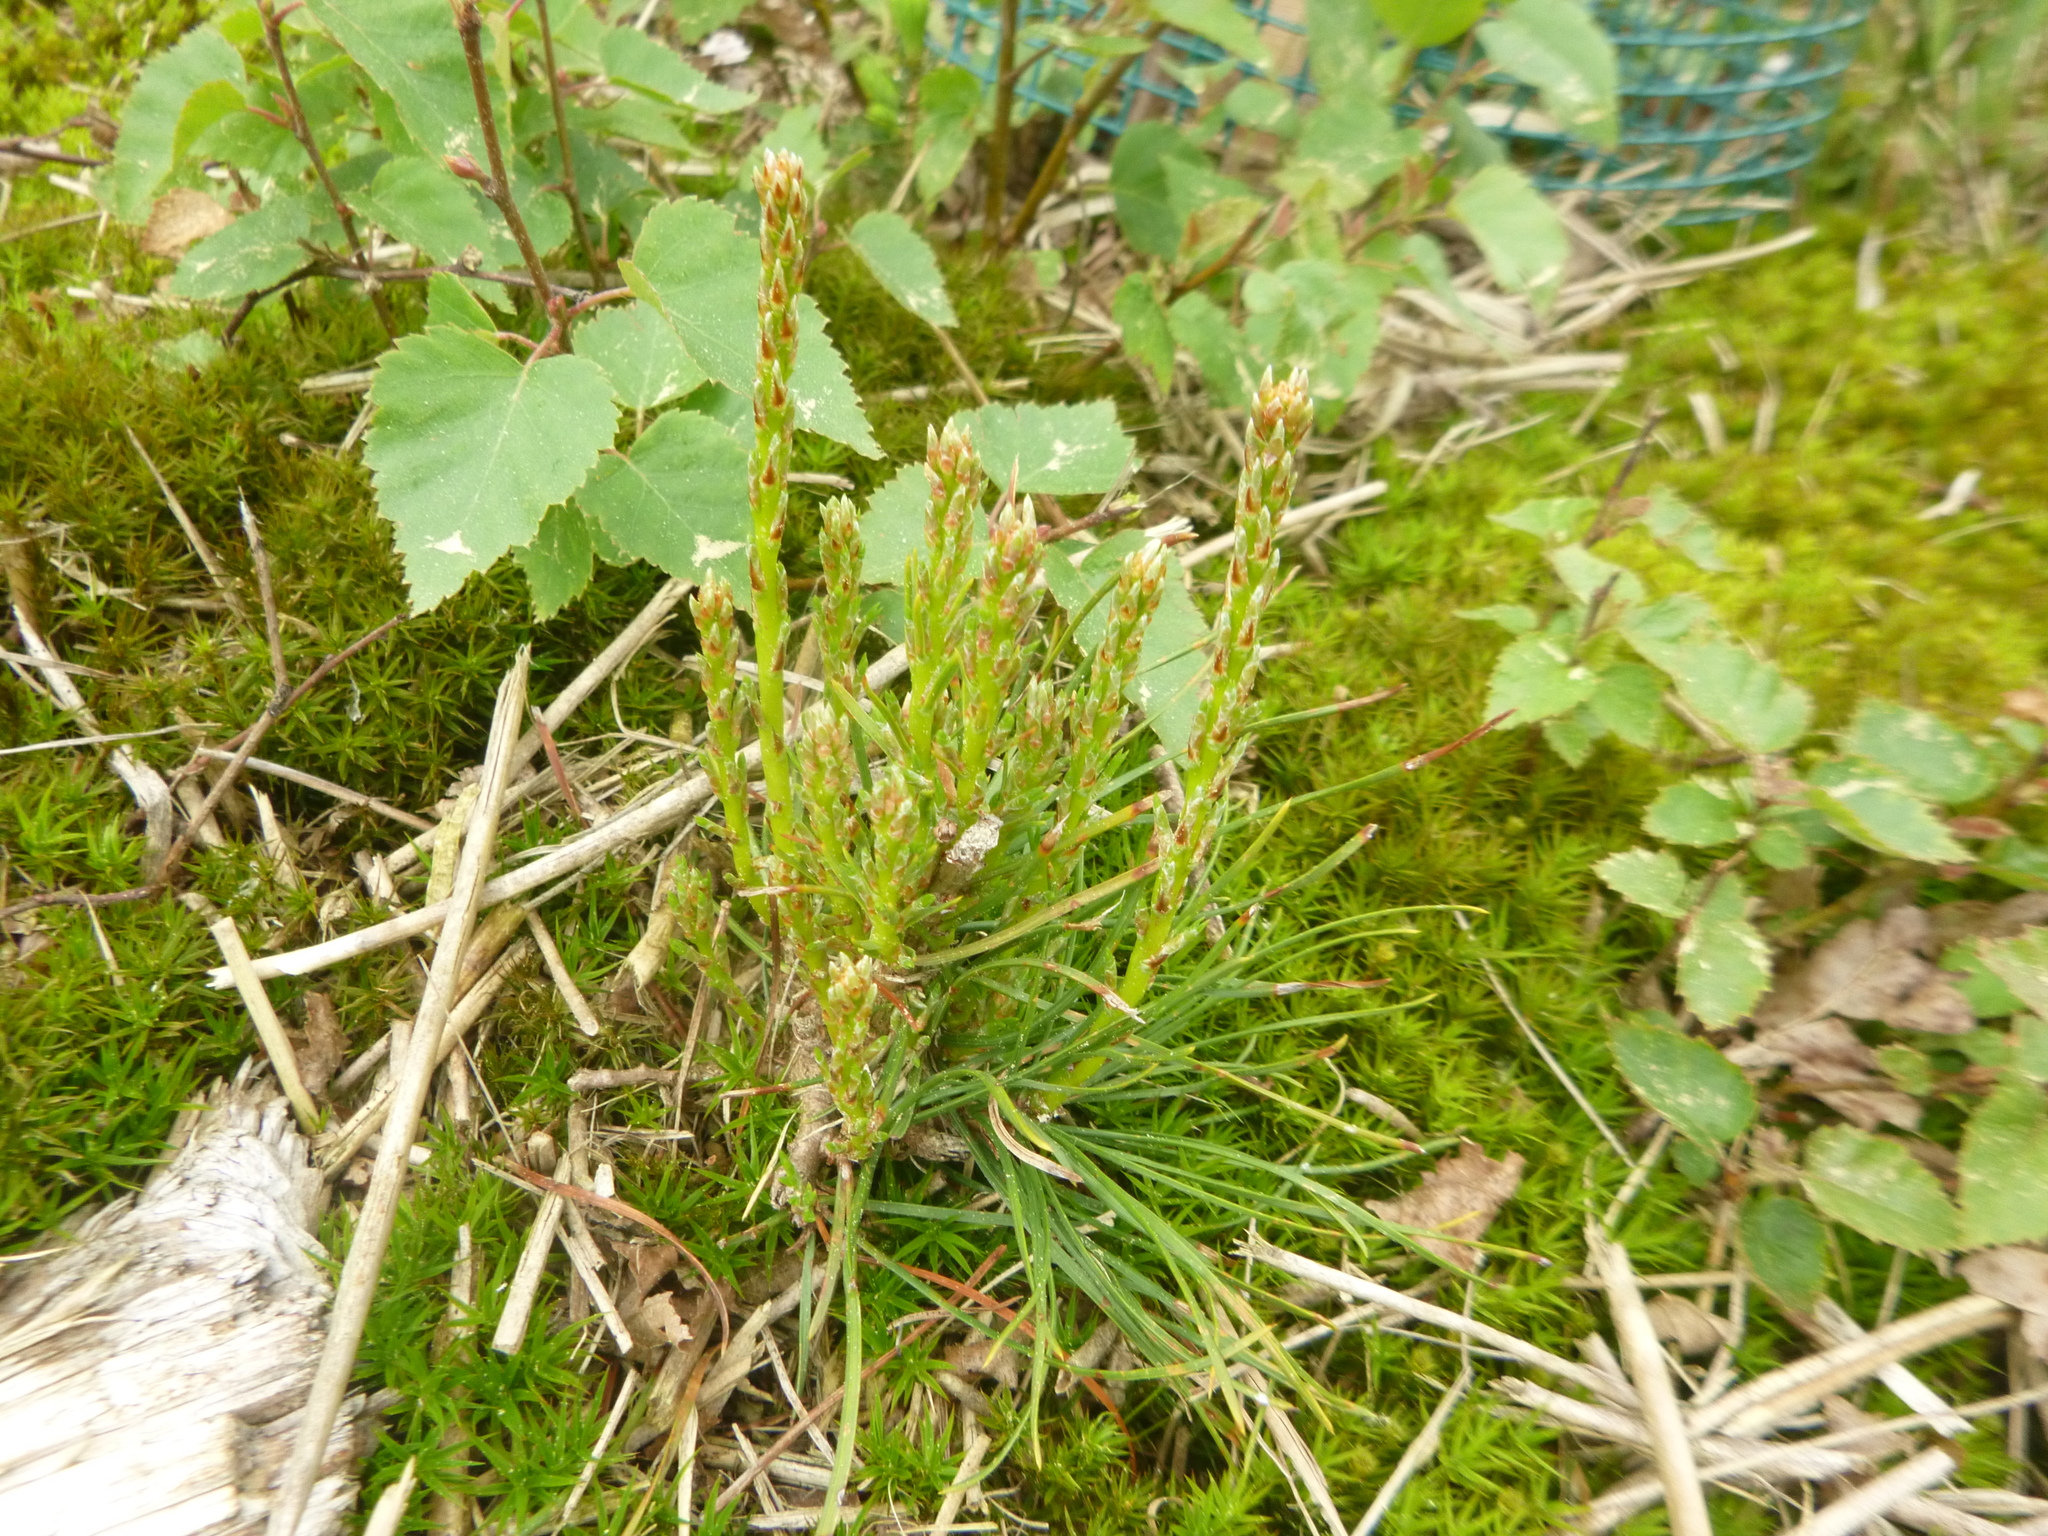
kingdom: Plantae
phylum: Tracheophyta
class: Pinopsida
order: Pinales
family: Pinaceae
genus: Pinus
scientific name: Pinus sylvestris
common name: Scots pine
